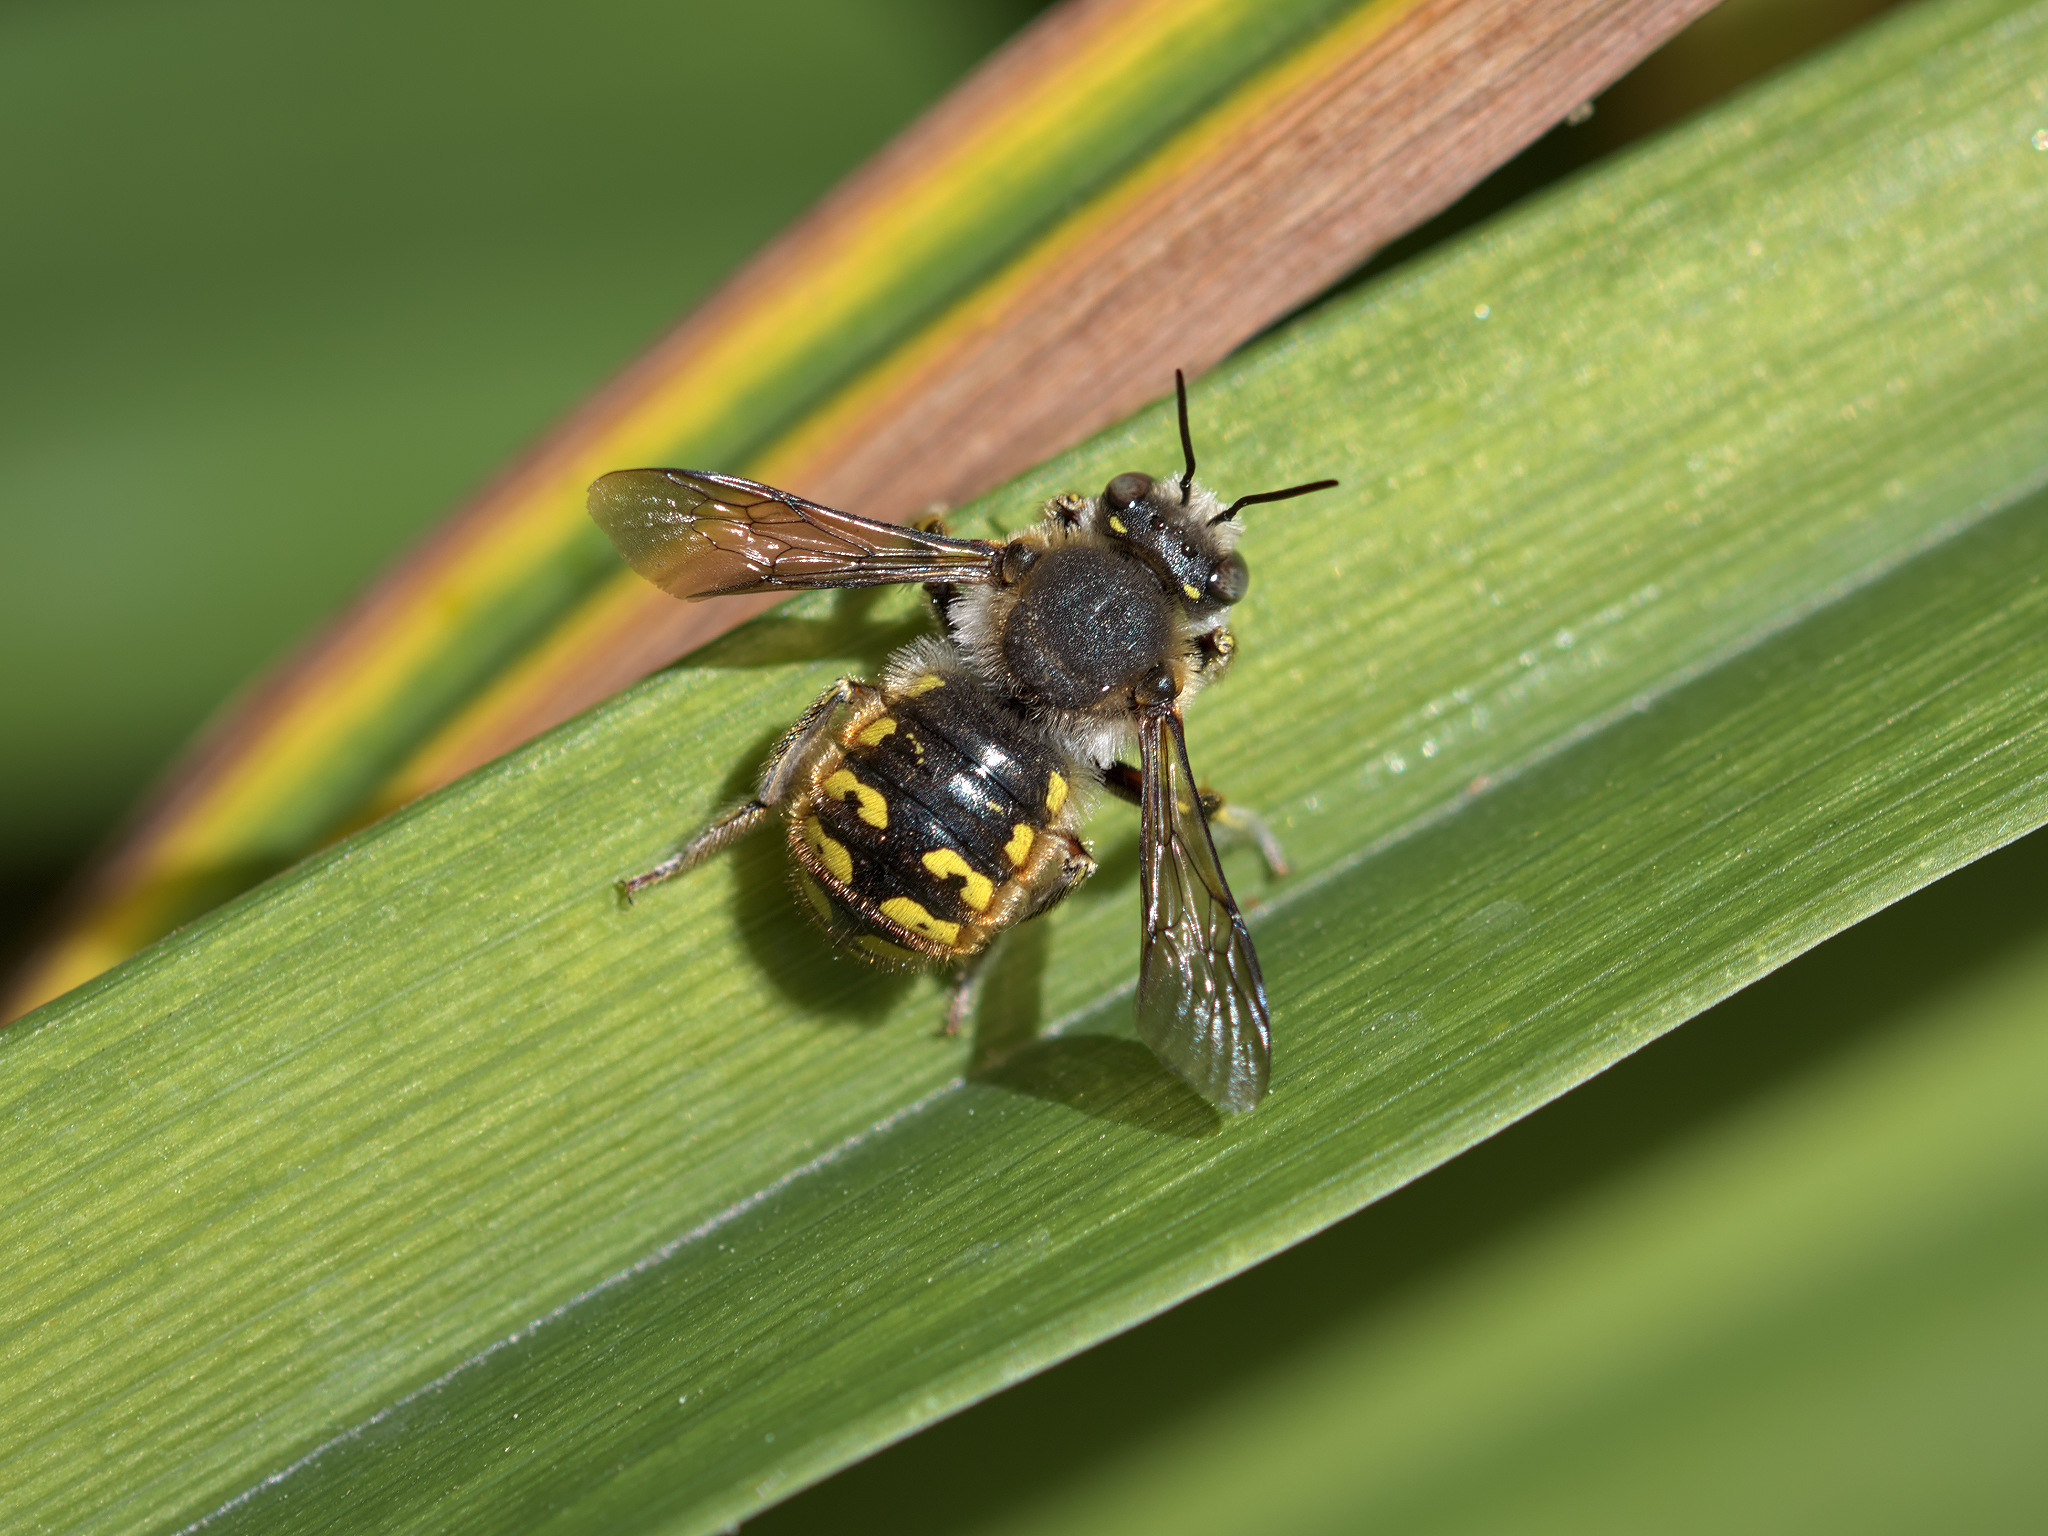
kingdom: Animalia
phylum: Arthropoda
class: Insecta
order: Hymenoptera
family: Megachilidae
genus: Anthidium
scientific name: Anthidium manicatum
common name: Wool carder bee
